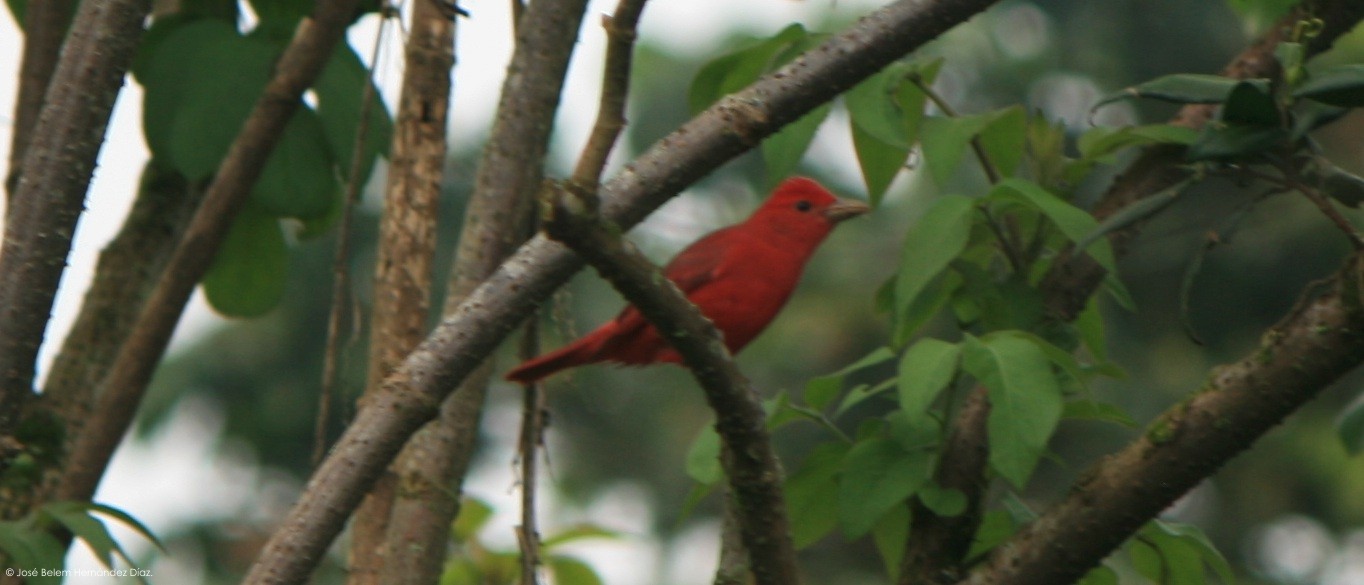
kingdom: Animalia
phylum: Chordata
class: Aves
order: Passeriformes
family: Cardinalidae
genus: Piranga
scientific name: Piranga rubra
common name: Summer tanager
